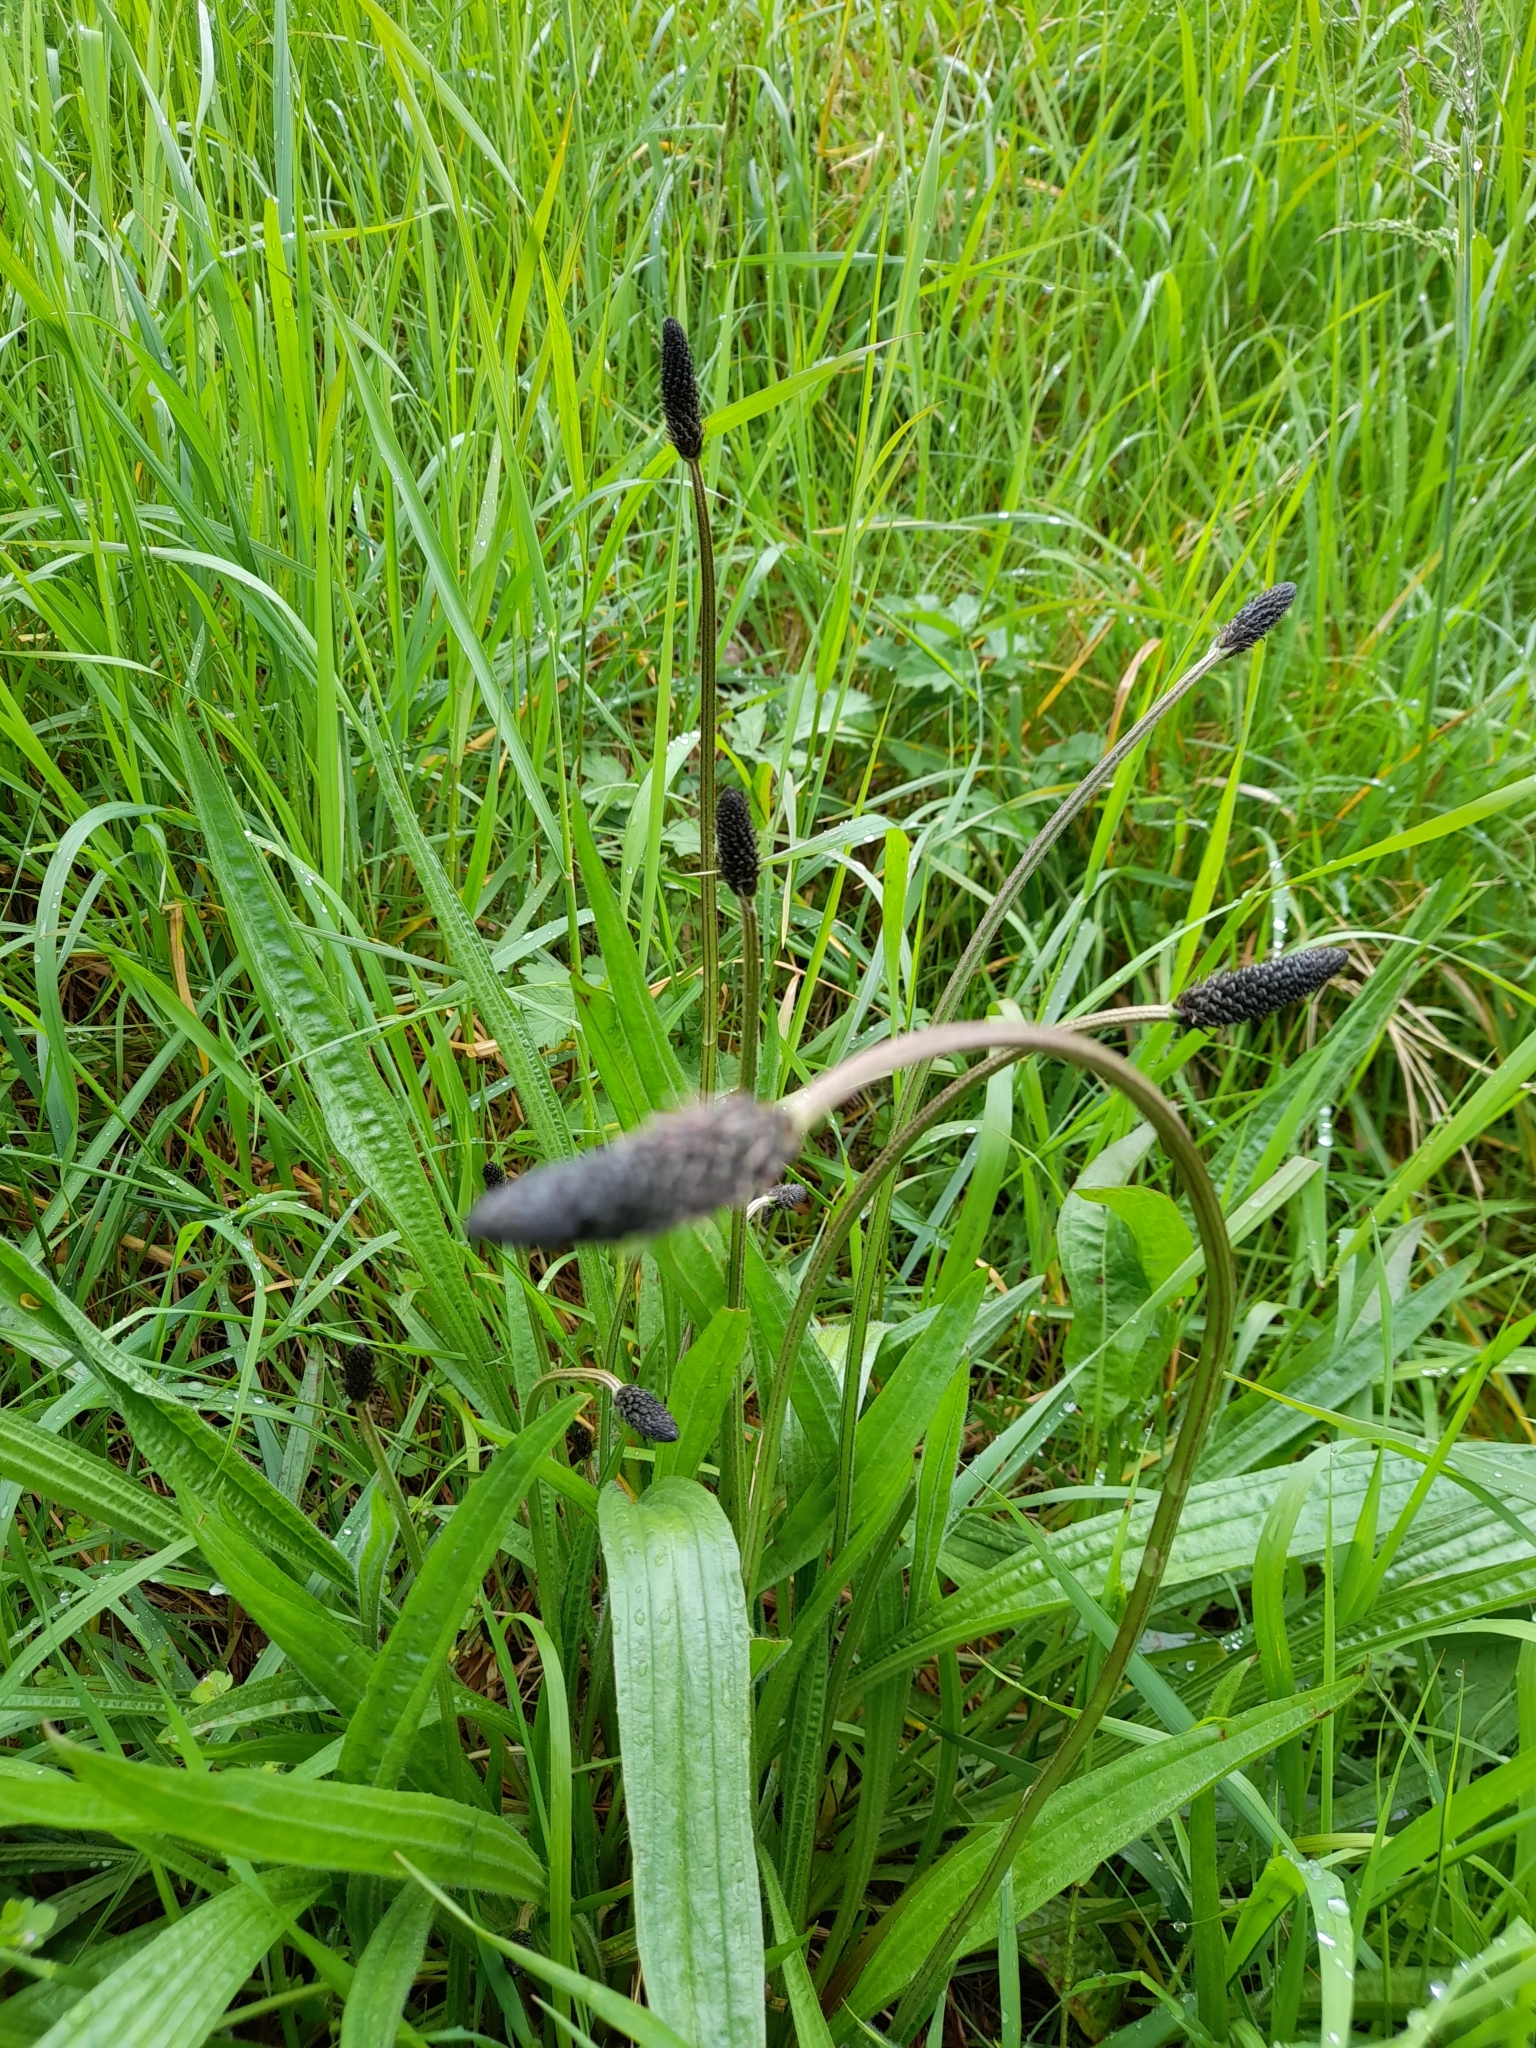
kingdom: Plantae
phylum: Tracheophyta
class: Magnoliopsida
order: Lamiales
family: Plantaginaceae
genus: Plantago
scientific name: Plantago lanceolata
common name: Ribwort plantain
